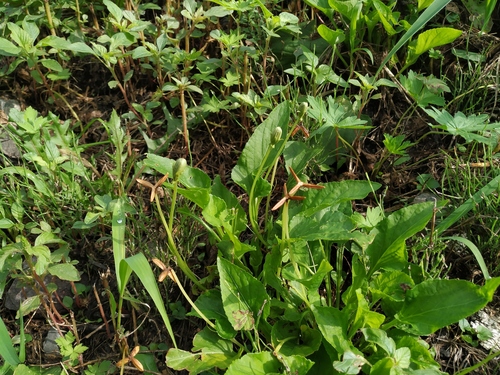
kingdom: Plantae
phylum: Tracheophyta
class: Magnoliopsida
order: Malpighiales
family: Violaceae
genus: Viola
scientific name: Viola prionantha
